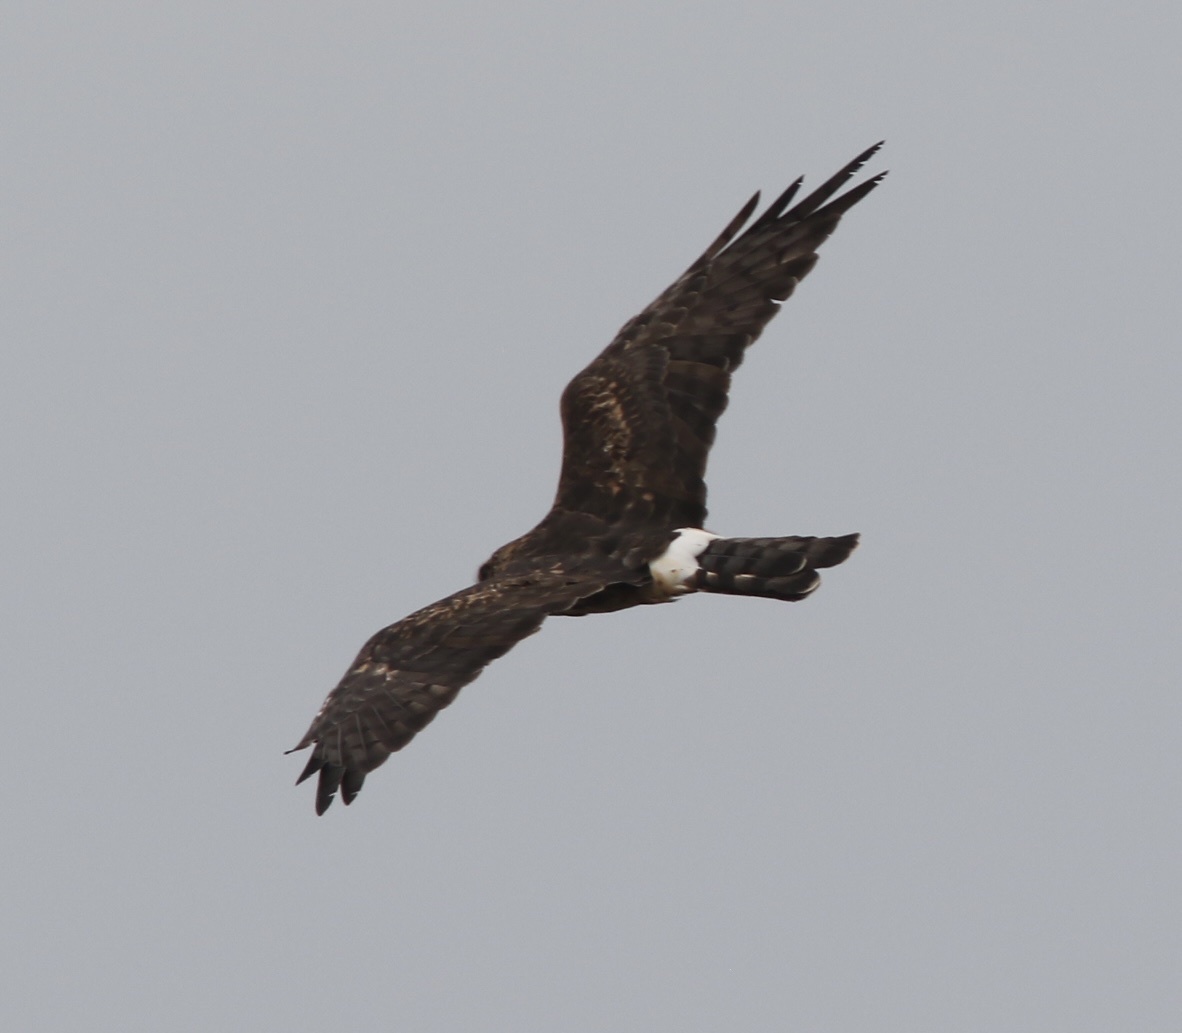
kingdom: Animalia
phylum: Chordata
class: Aves
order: Accipitriformes
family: Accipitridae
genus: Circus
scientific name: Circus cyaneus
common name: Hen harrier
